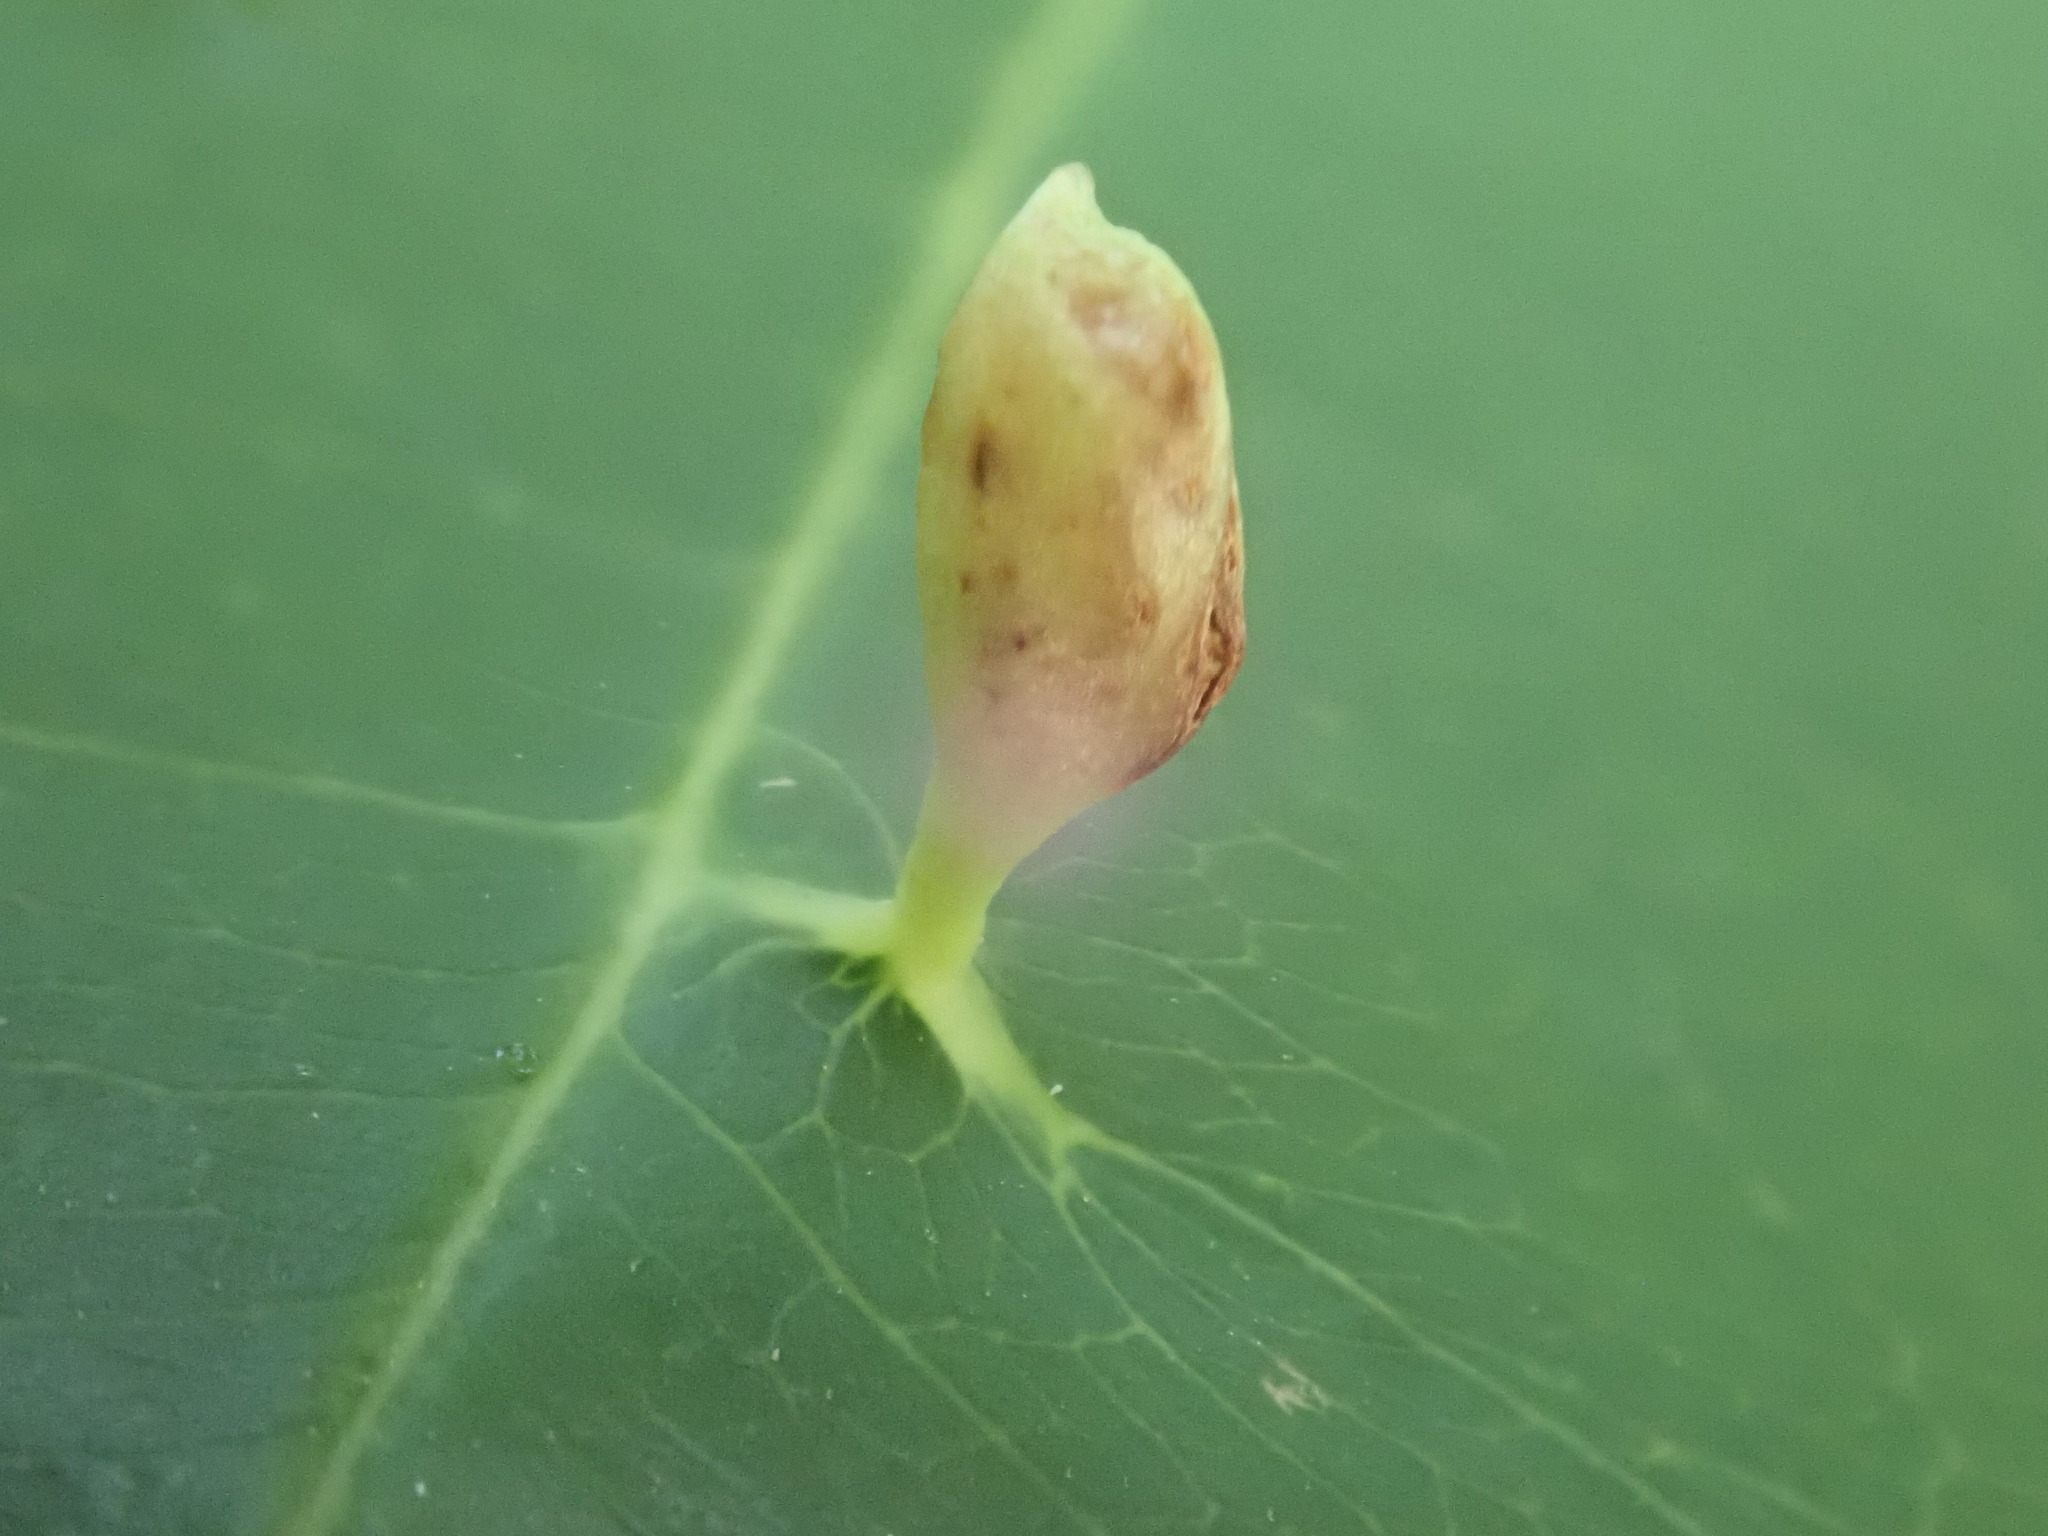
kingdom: Animalia
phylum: Arthropoda
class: Arachnida
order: Trombidiformes
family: Eriophyidae
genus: Eriophyes
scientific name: Eriophyes
